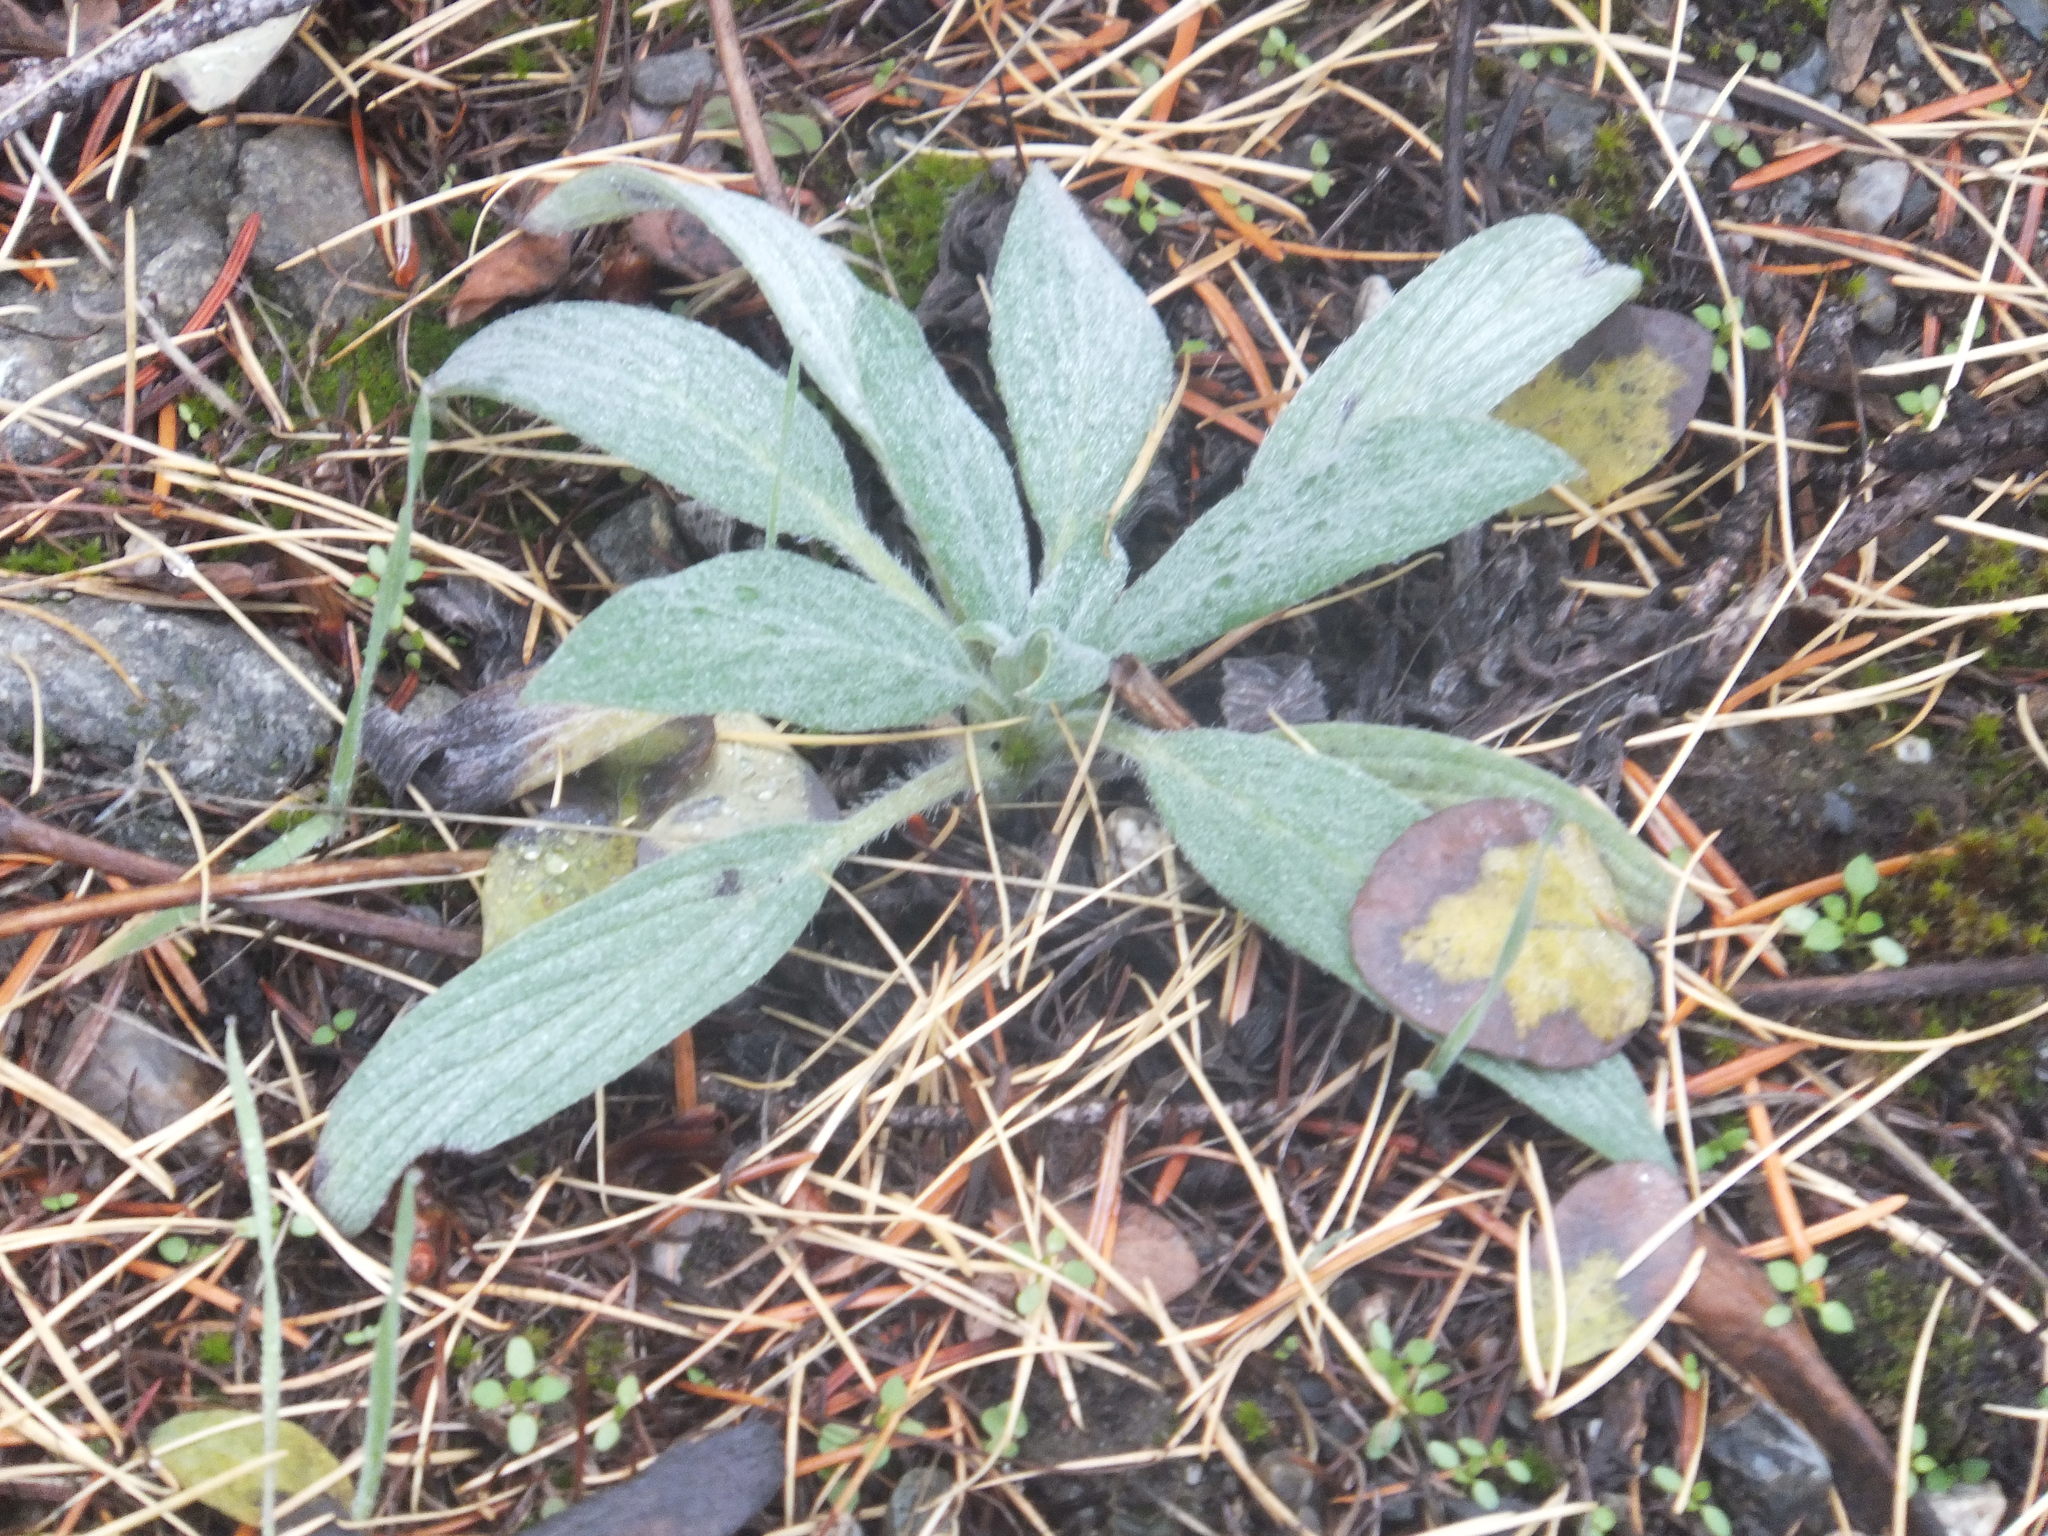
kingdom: Plantae
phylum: Tracheophyta
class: Magnoliopsida
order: Boraginales
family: Hydrophyllaceae
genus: Phacelia
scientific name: Phacelia hastata
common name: Silver-leaved phacelia
